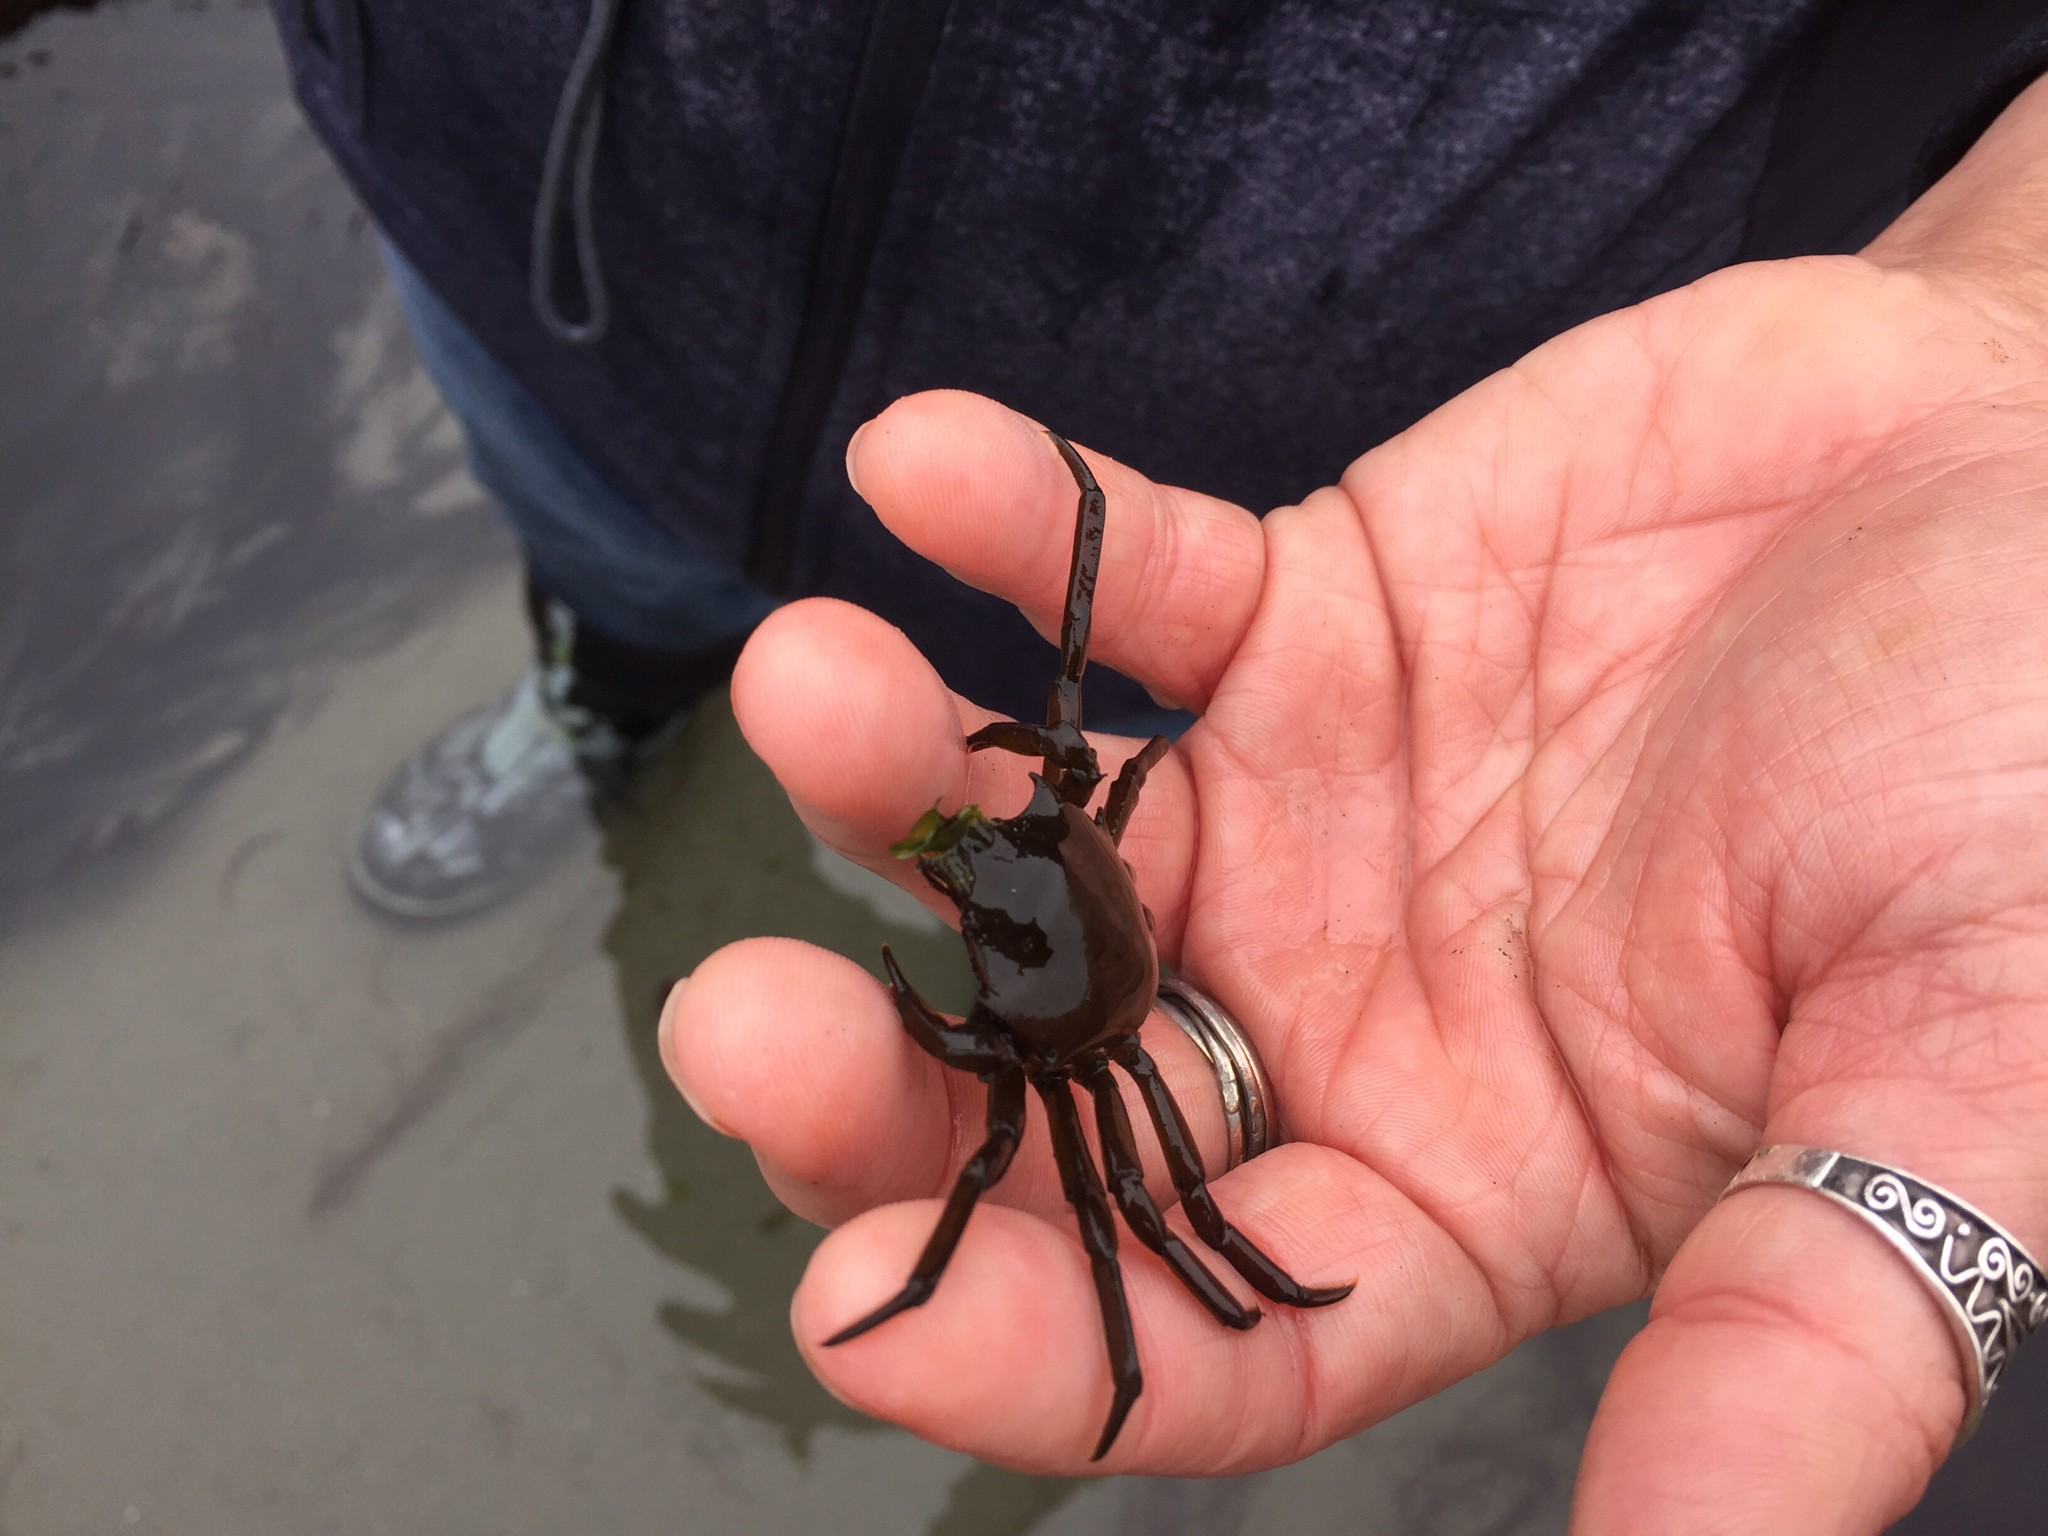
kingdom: Animalia
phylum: Arthropoda
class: Malacostraca
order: Decapoda
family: Epialtidae
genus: Pugettia
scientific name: Pugettia producta
